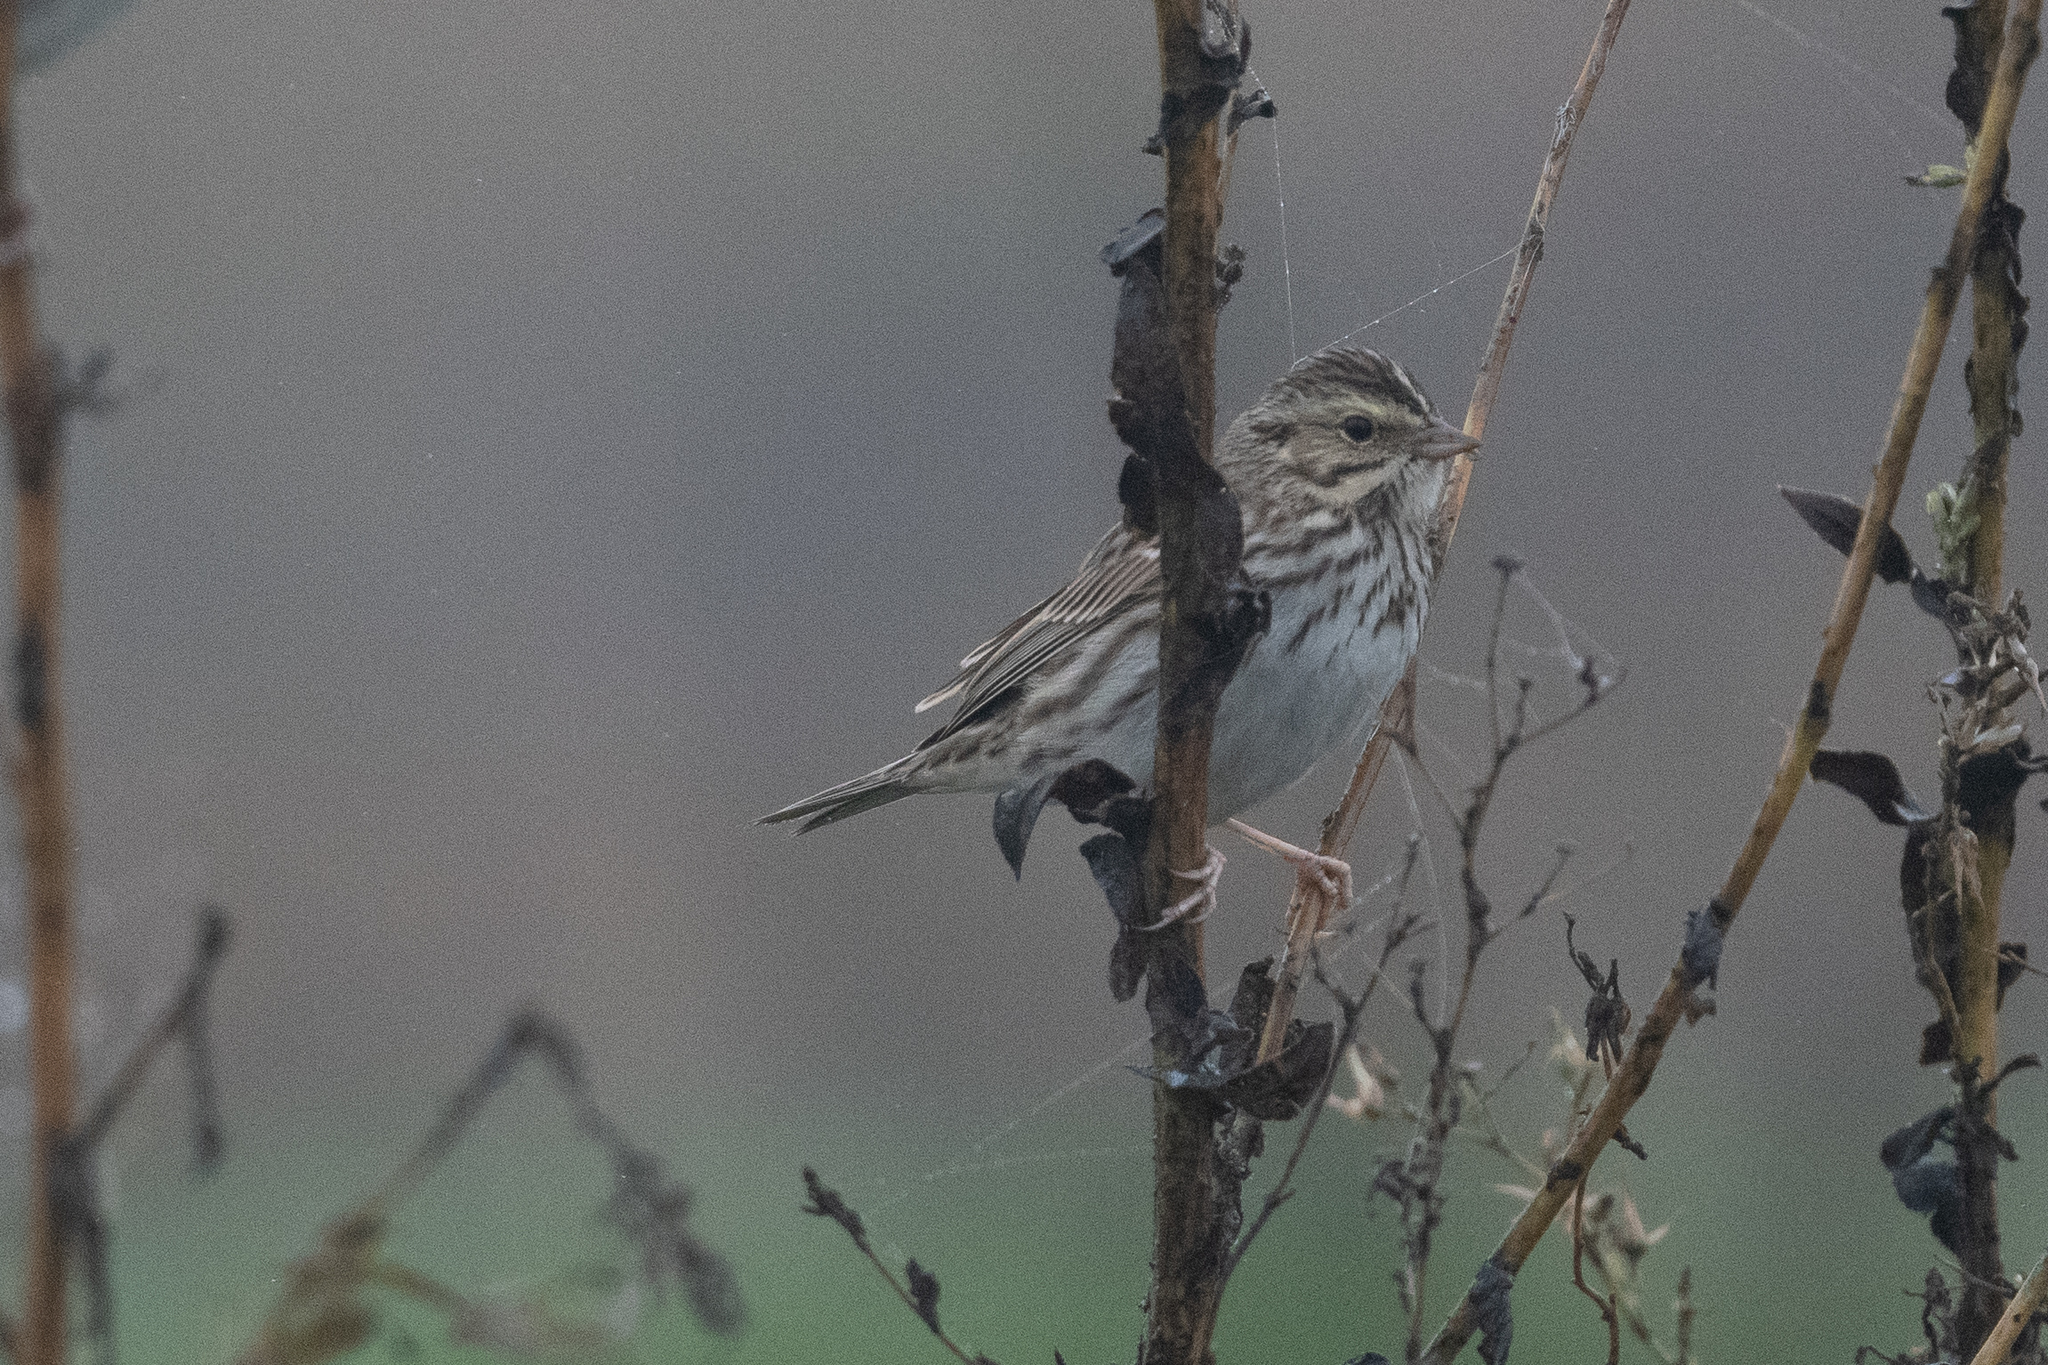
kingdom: Animalia
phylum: Chordata
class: Aves
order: Passeriformes
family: Passerellidae
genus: Passerculus
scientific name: Passerculus sandwichensis
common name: Savannah sparrow
